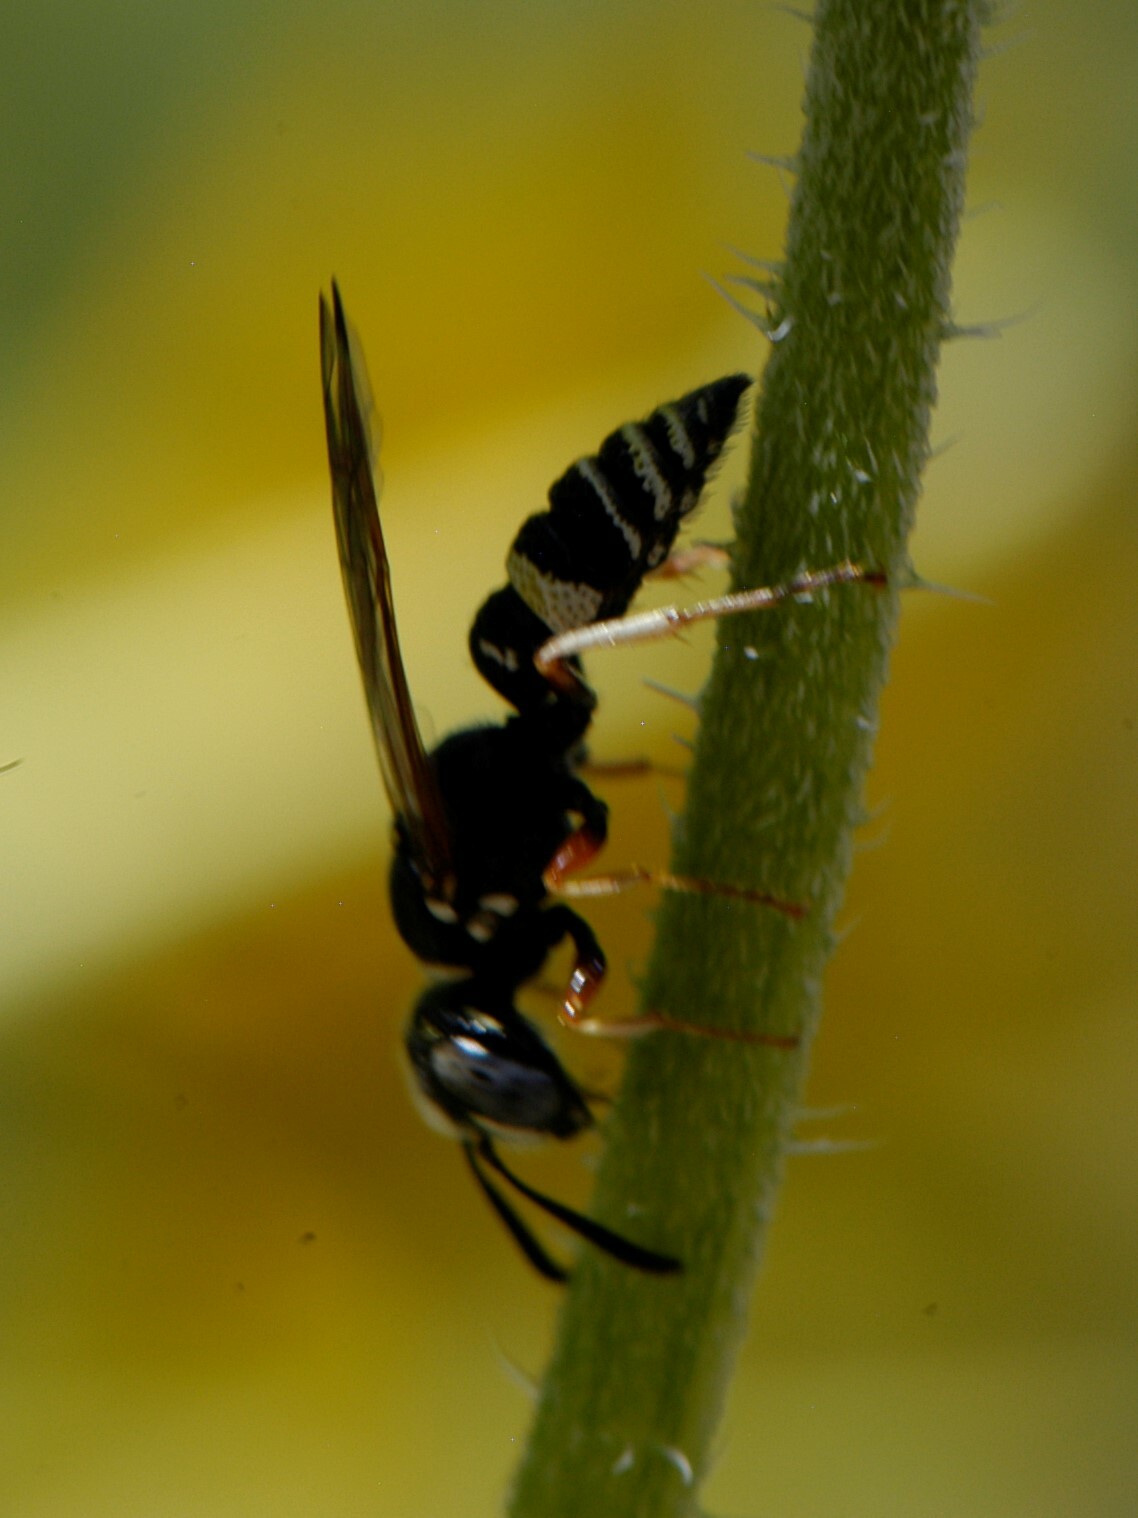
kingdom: Animalia
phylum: Arthropoda
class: Insecta
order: Hymenoptera
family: Crabronidae
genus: Philanthus
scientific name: Philanthus gibbosus
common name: Humped beewolf
